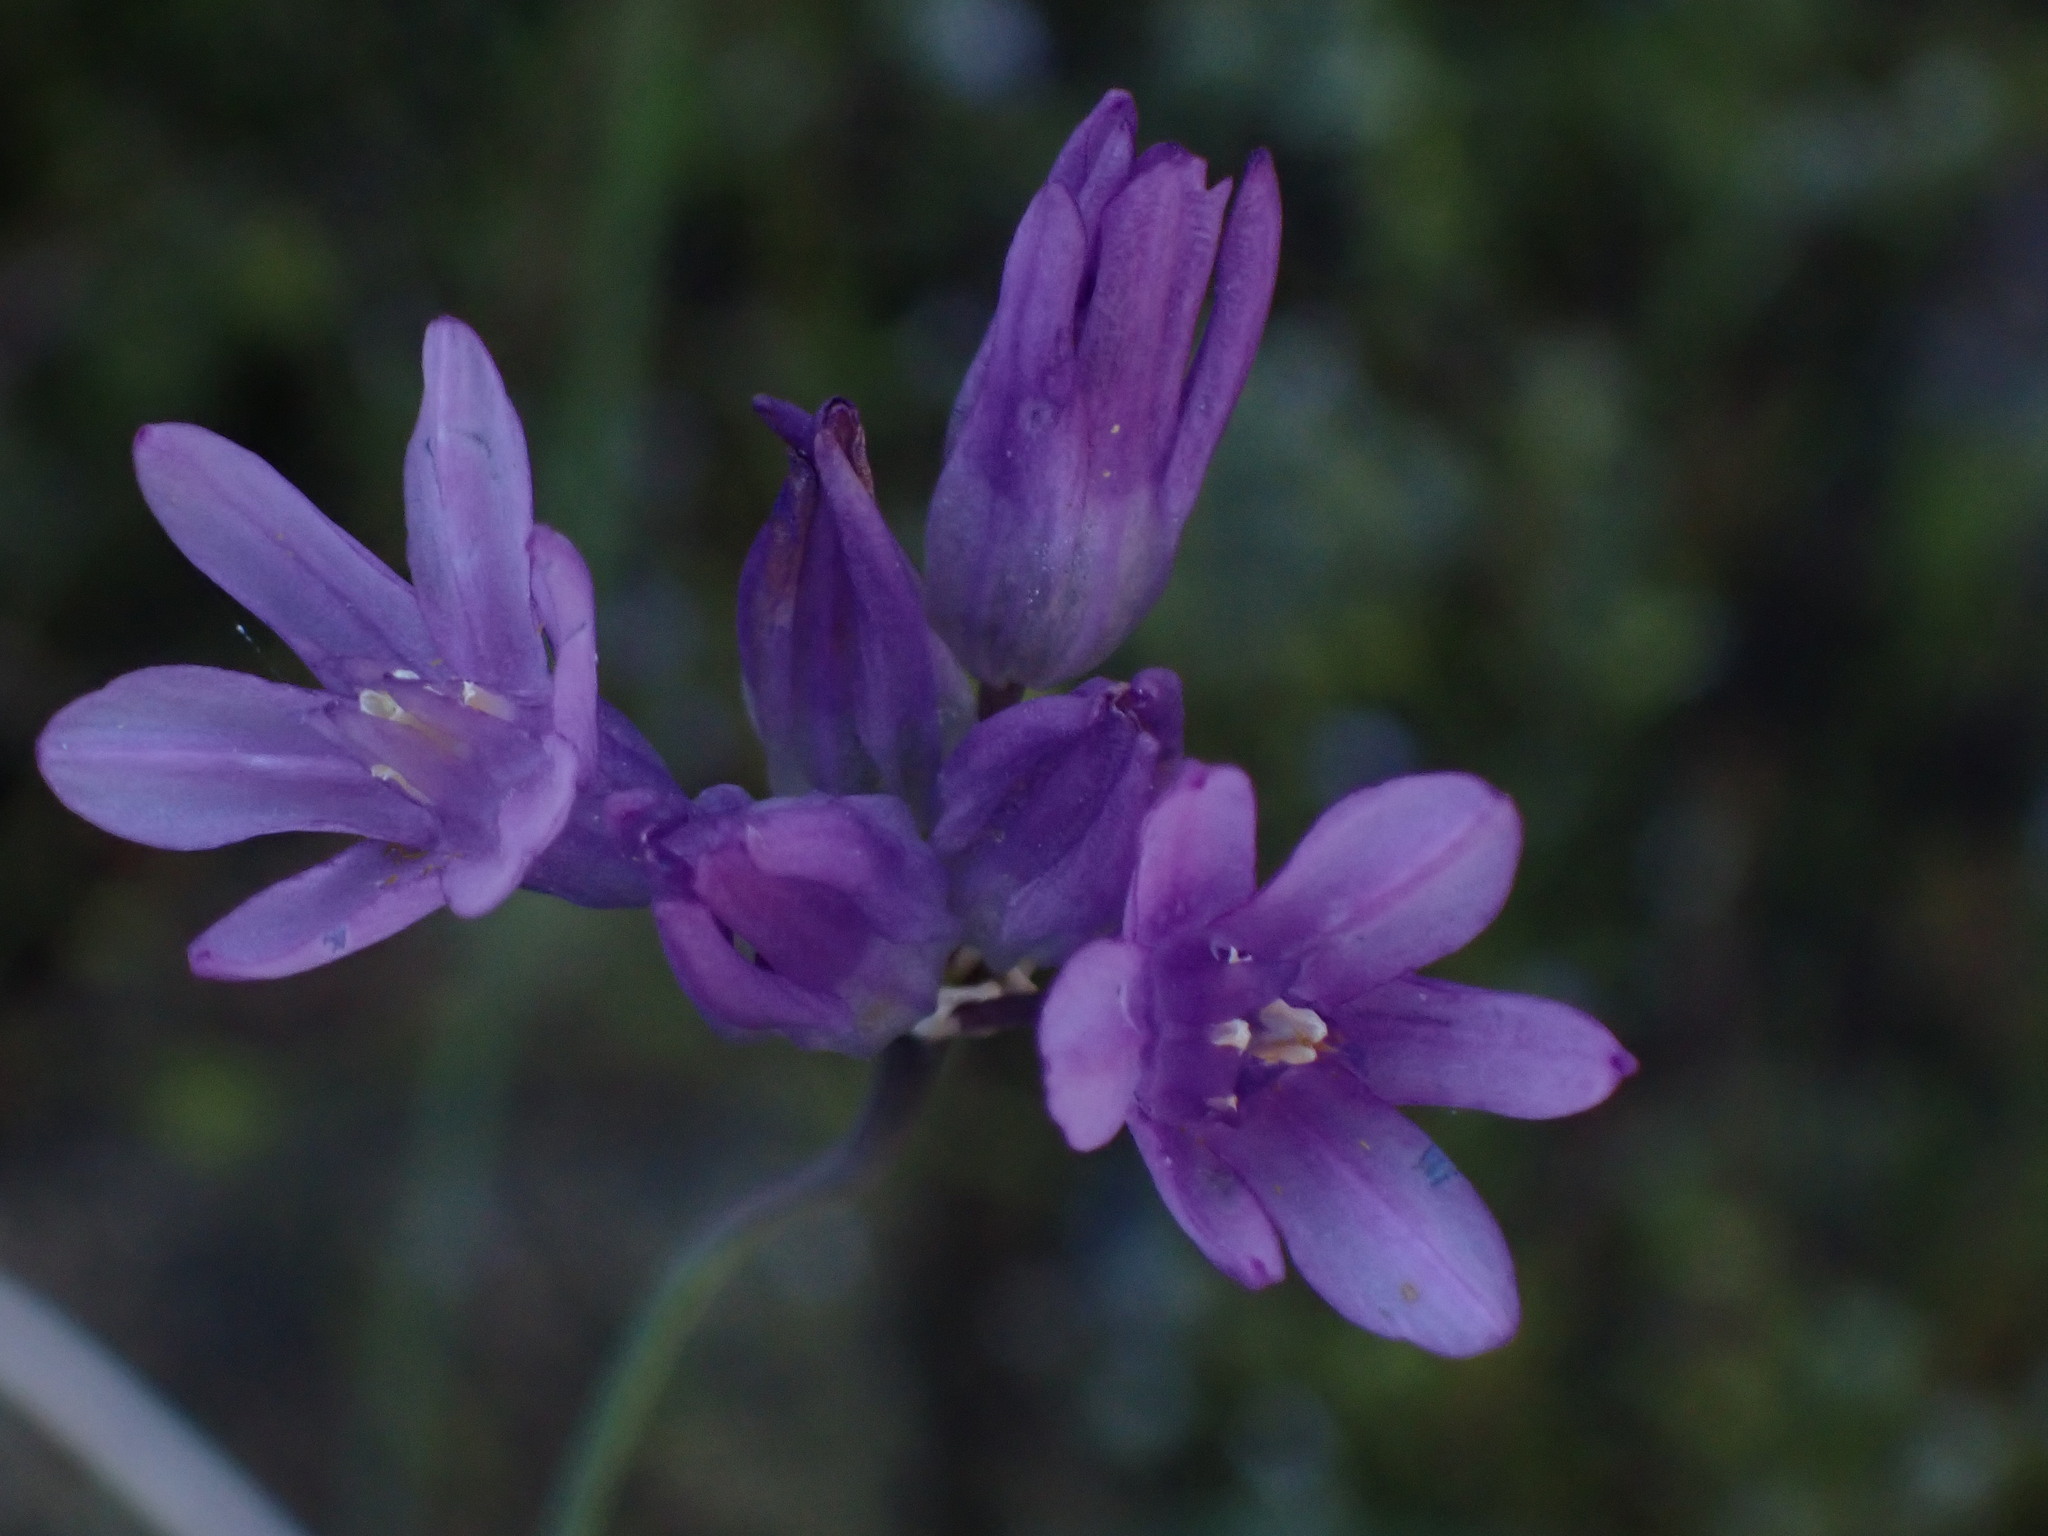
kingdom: Plantae
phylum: Tracheophyta
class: Liliopsida
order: Asparagales
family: Asparagaceae
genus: Dipterostemon
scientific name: Dipterostemon capitatus
